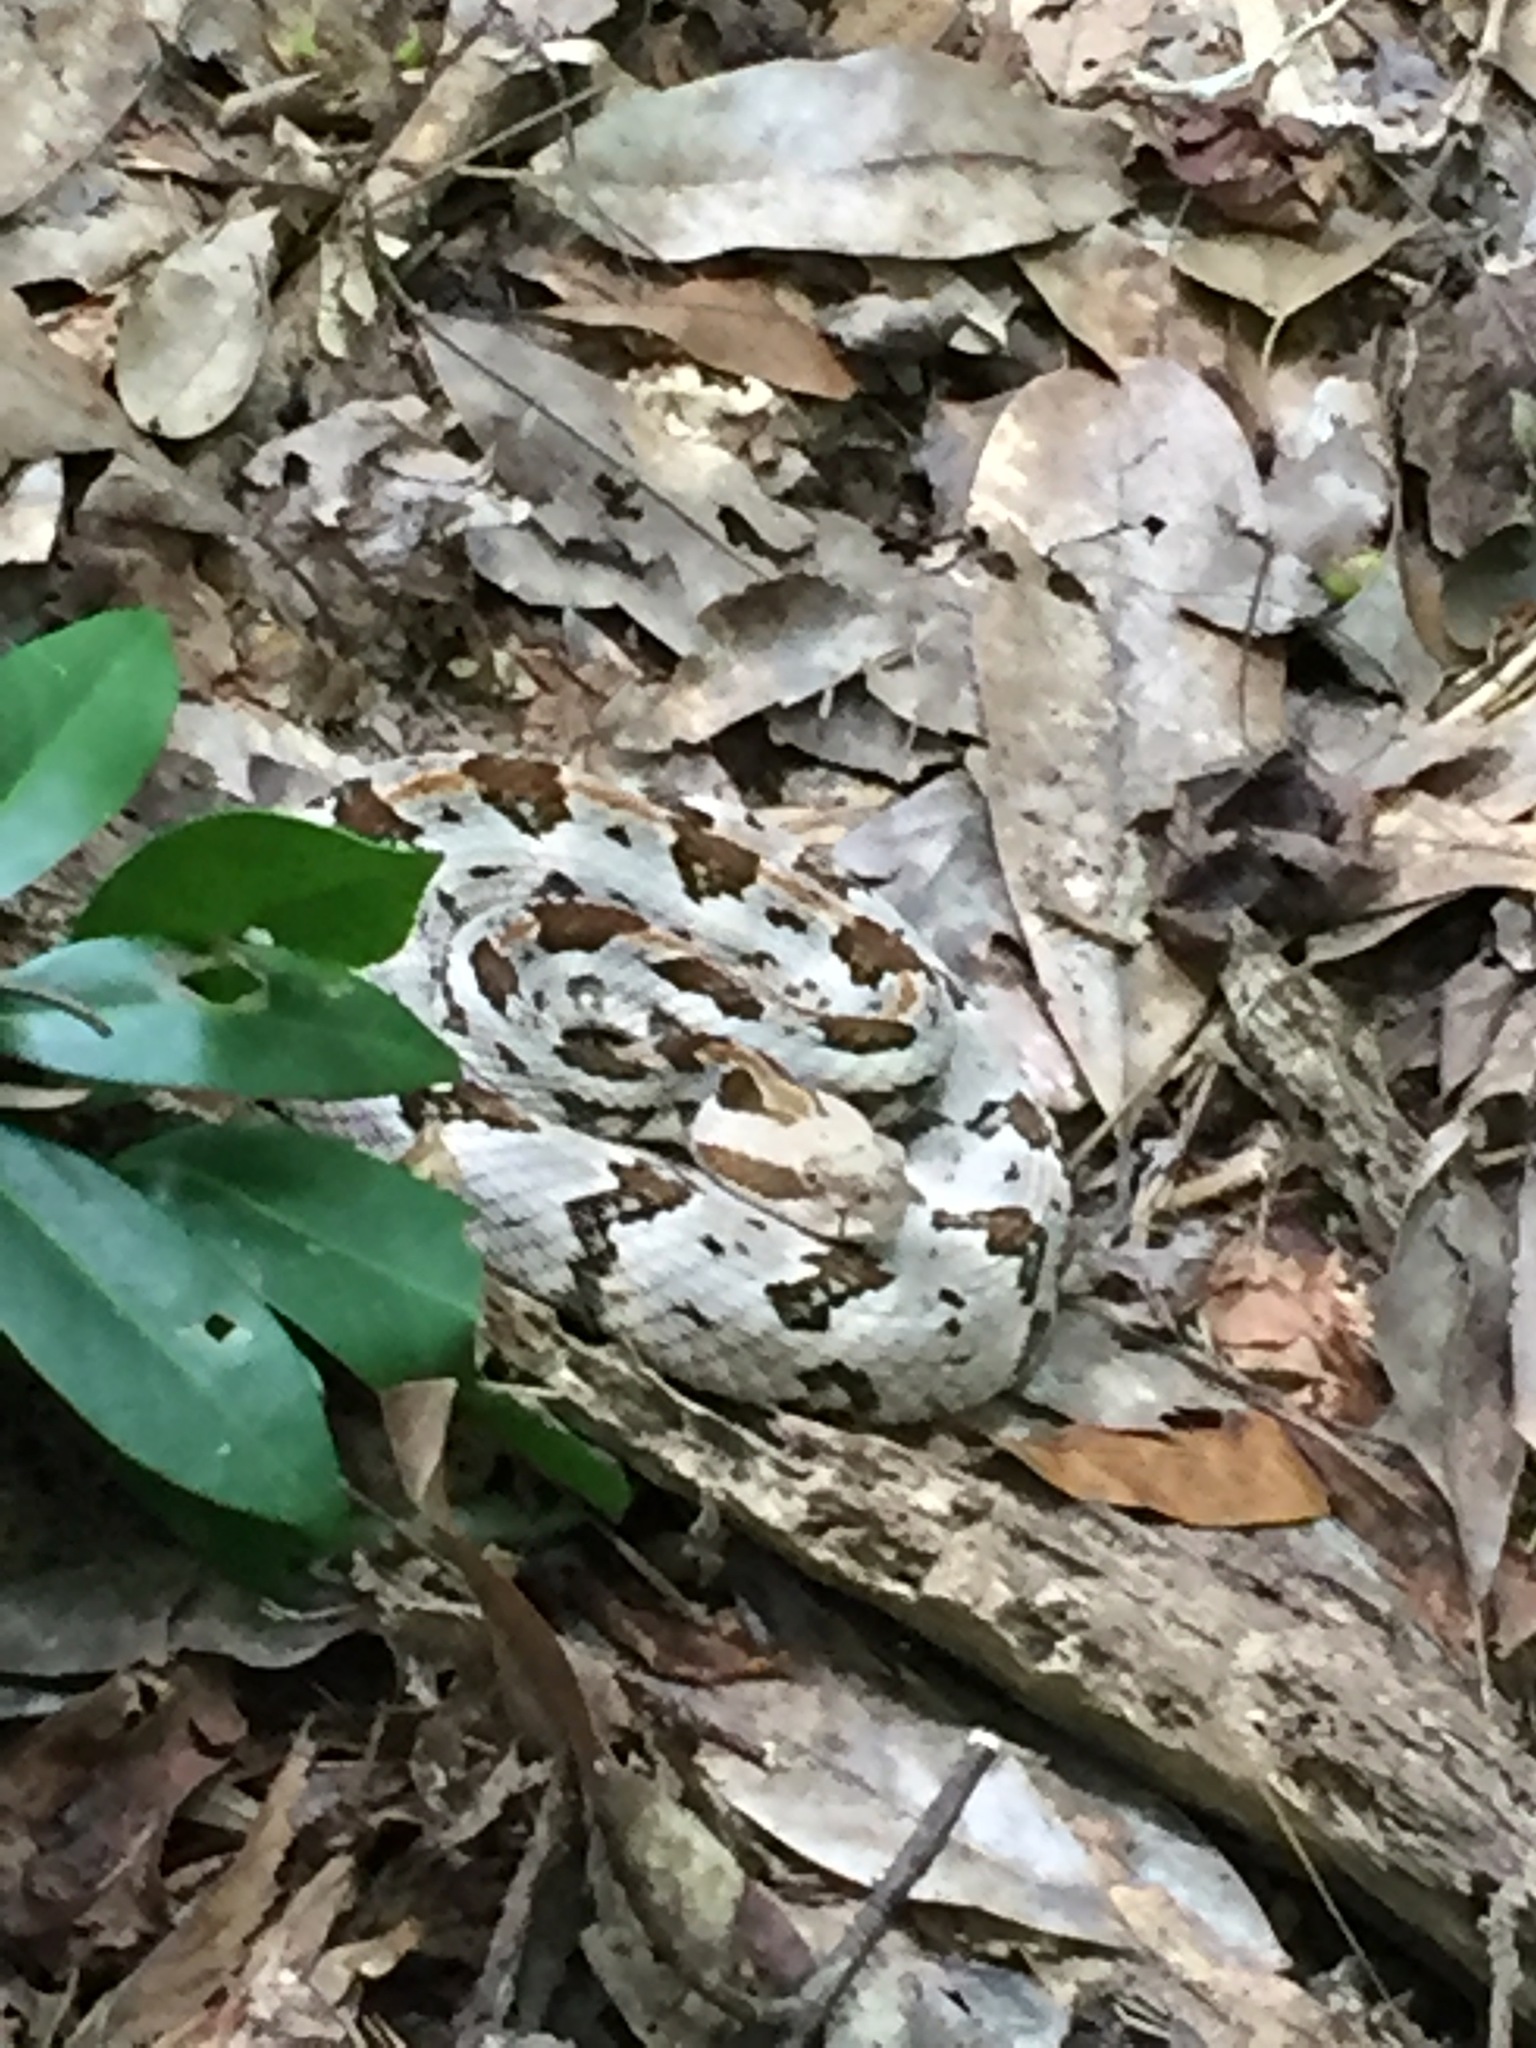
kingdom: Animalia
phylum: Chordata
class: Squamata
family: Viperidae
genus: Crotalus
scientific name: Crotalus horridus
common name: Timber rattlesnake
